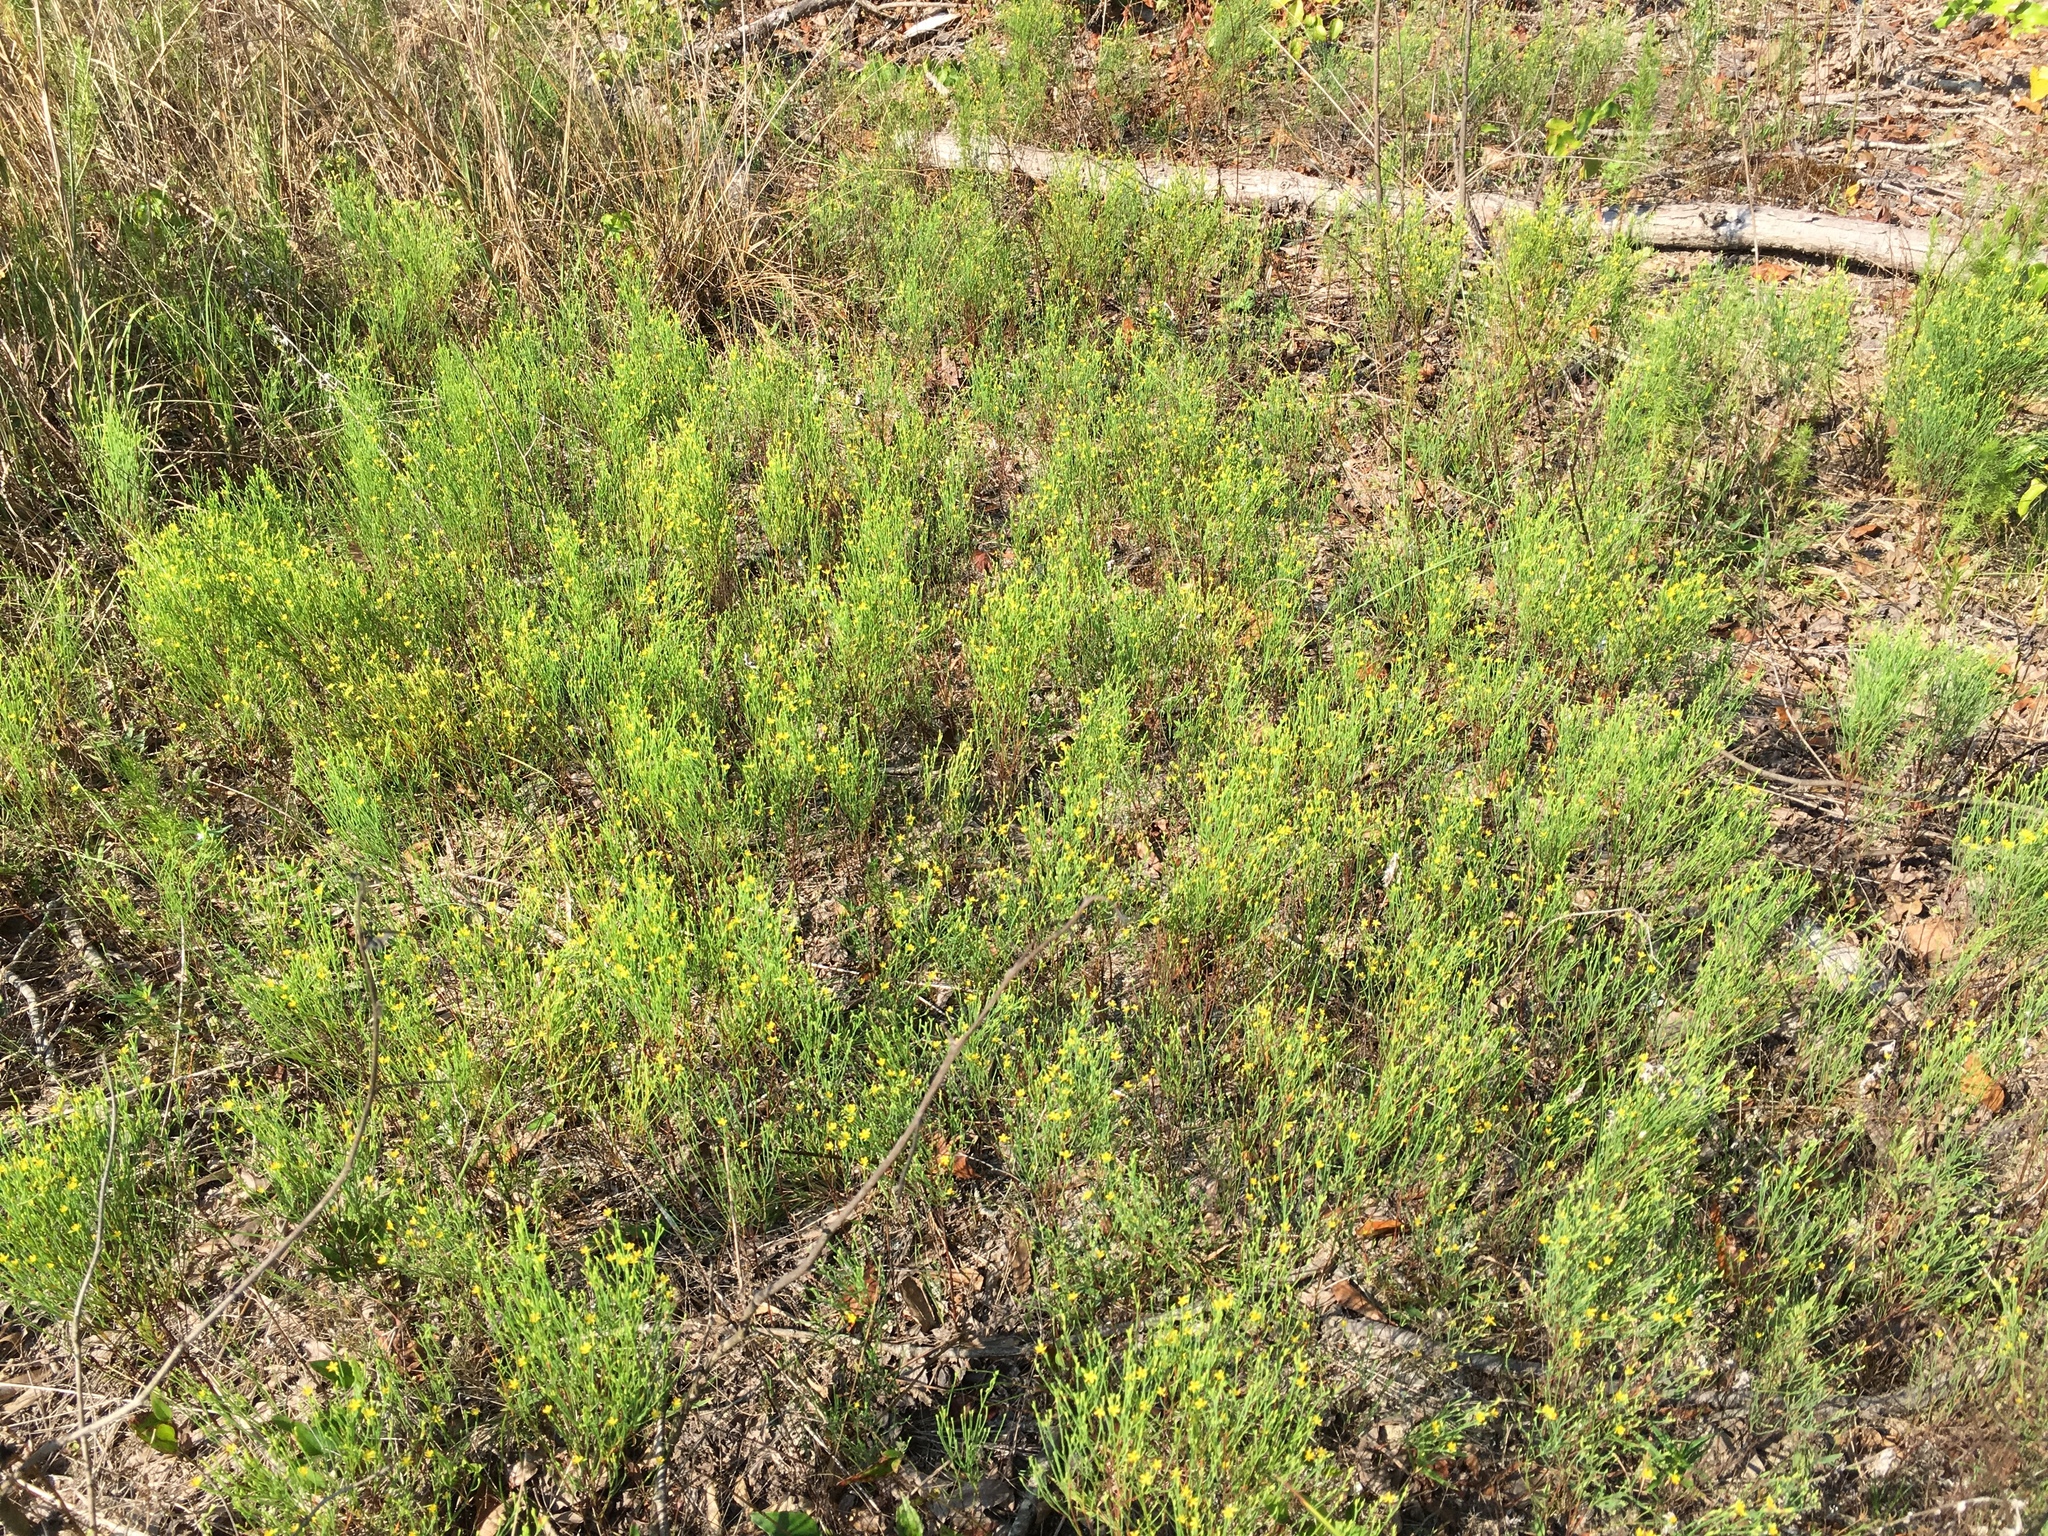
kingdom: Plantae
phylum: Tracheophyta
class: Magnoliopsida
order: Malpighiales
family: Hypericaceae
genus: Hypericum
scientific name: Hypericum gentianoides
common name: Gentian-leaved st. john's-wort
